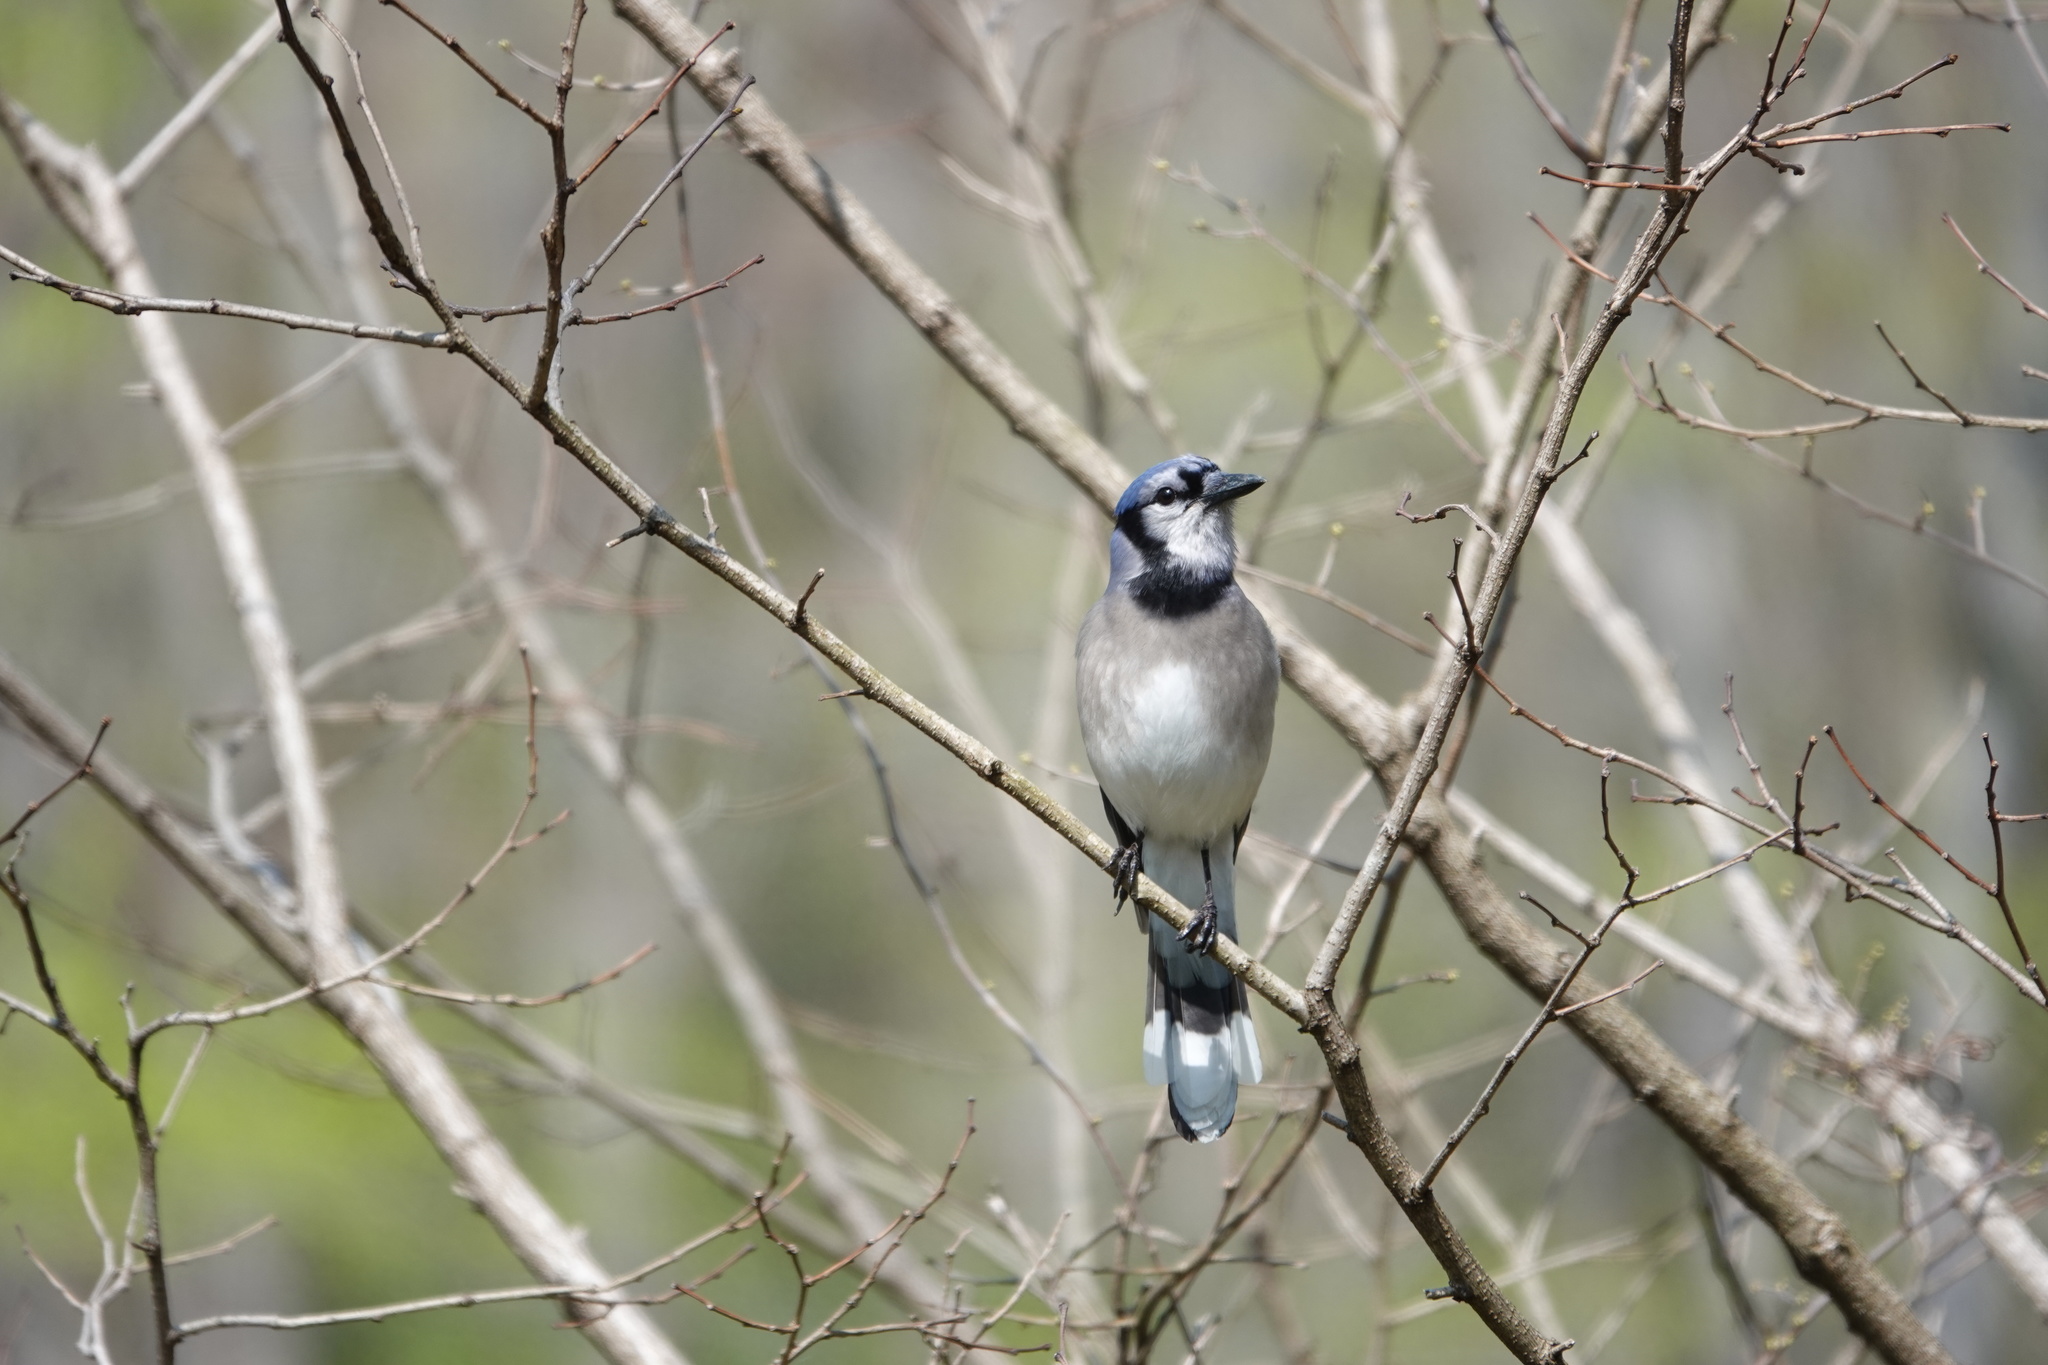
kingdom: Animalia
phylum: Chordata
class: Aves
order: Passeriformes
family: Corvidae
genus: Cyanocitta
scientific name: Cyanocitta cristata
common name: Blue jay
